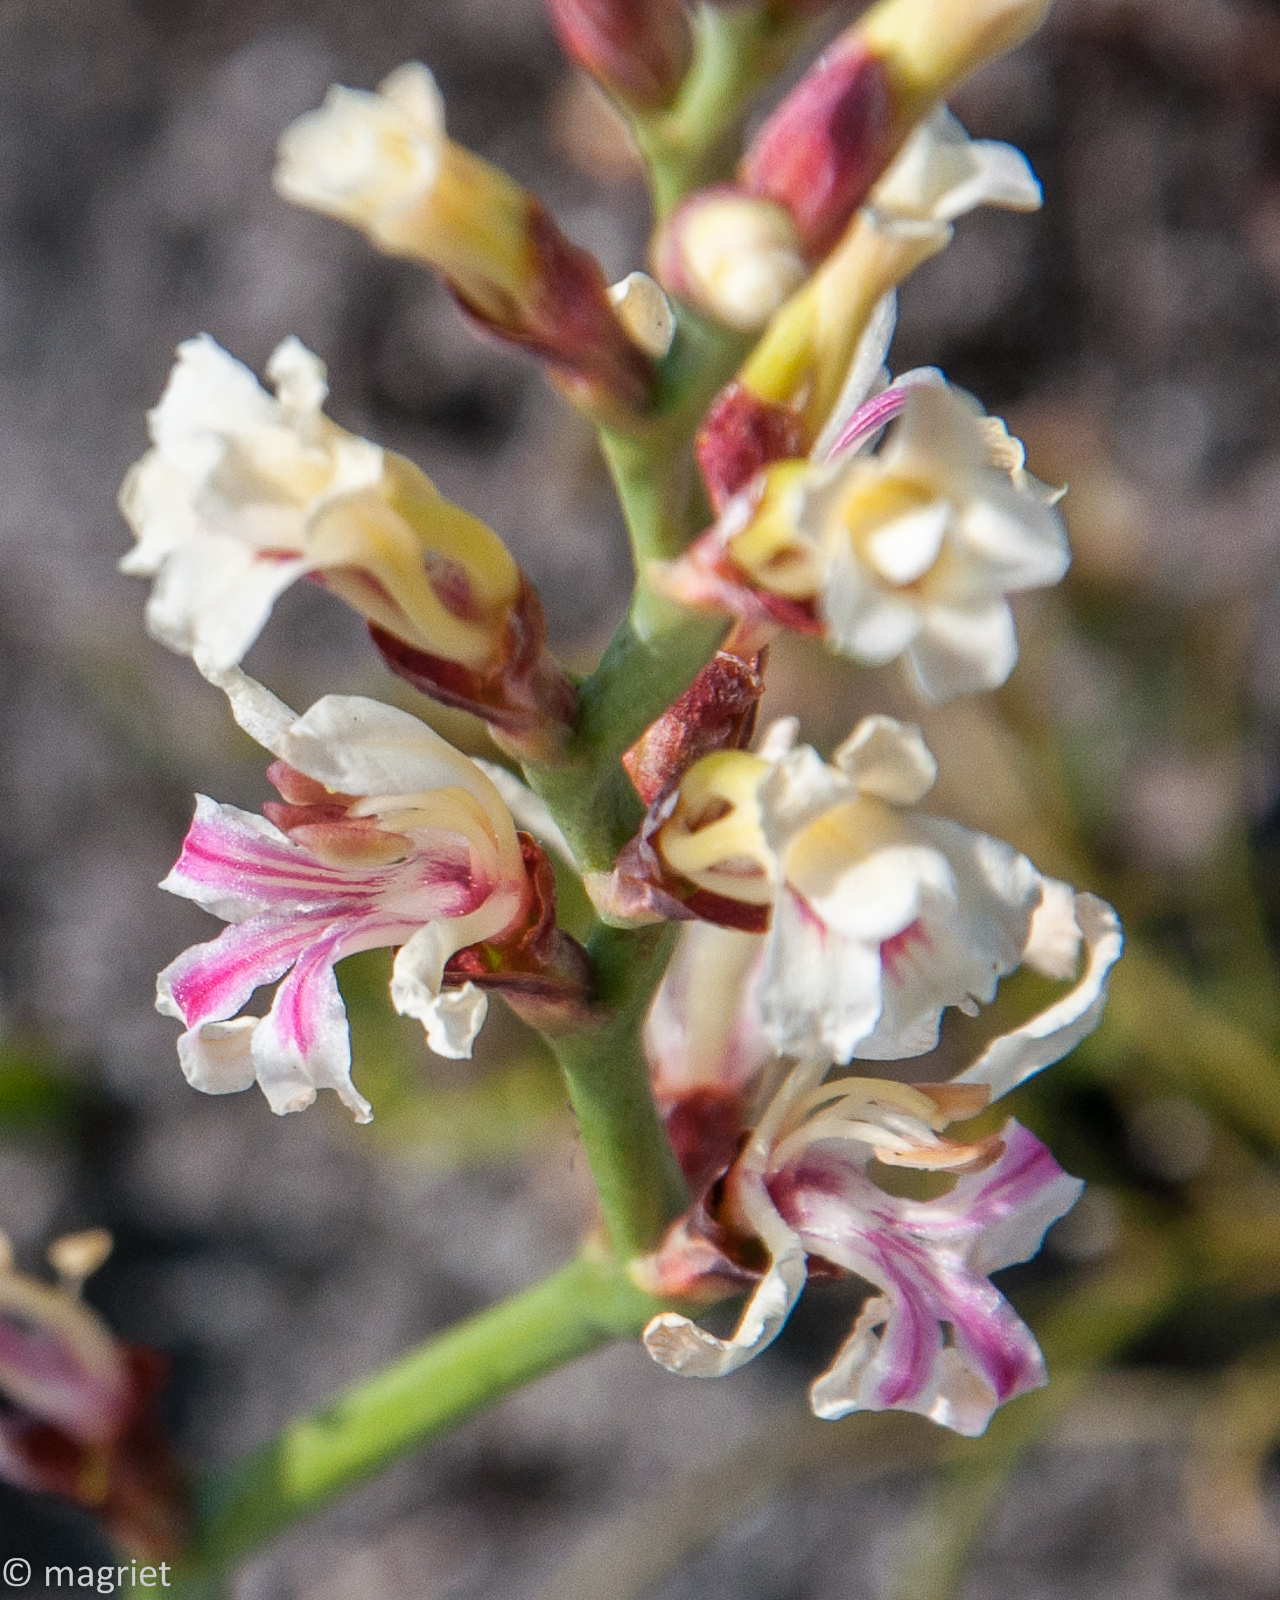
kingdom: Plantae
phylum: Tracheophyta
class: Liliopsida
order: Asparagales
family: Iridaceae
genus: Tritoniopsis
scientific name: Tritoniopsis unguicularis
